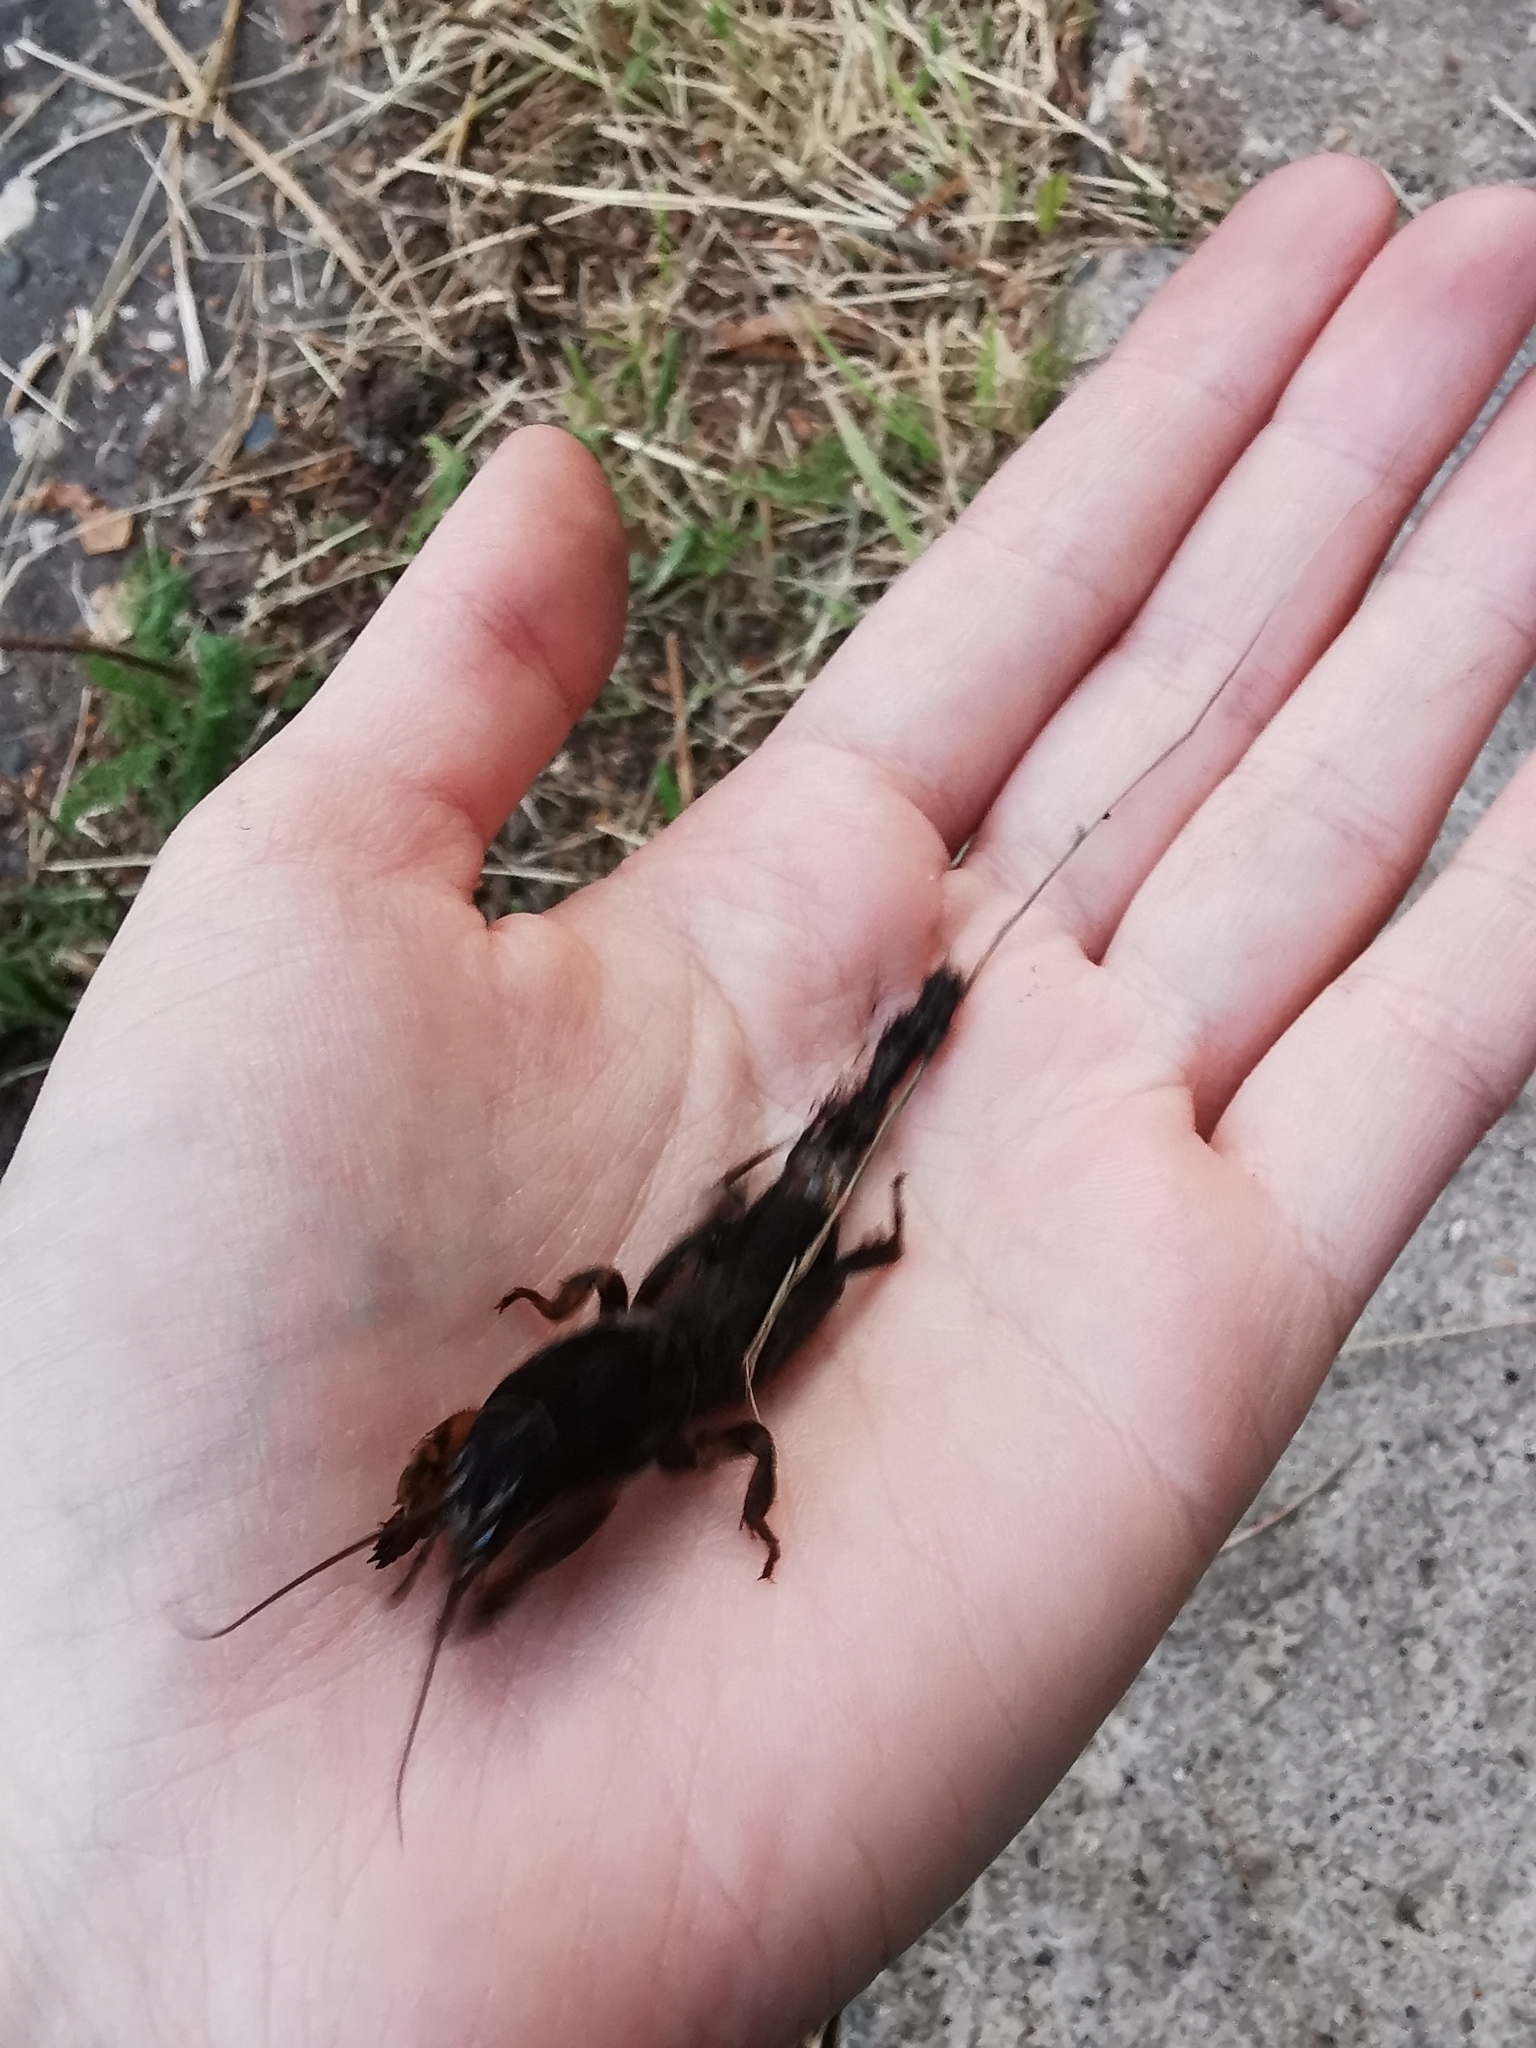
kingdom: Animalia
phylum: Arthropoda
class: Insecta
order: Orthoptera
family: Gryllotalpidae
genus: Gryllotalpa
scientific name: Gryllotalpa gryllotalpa
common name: European mole cricket
